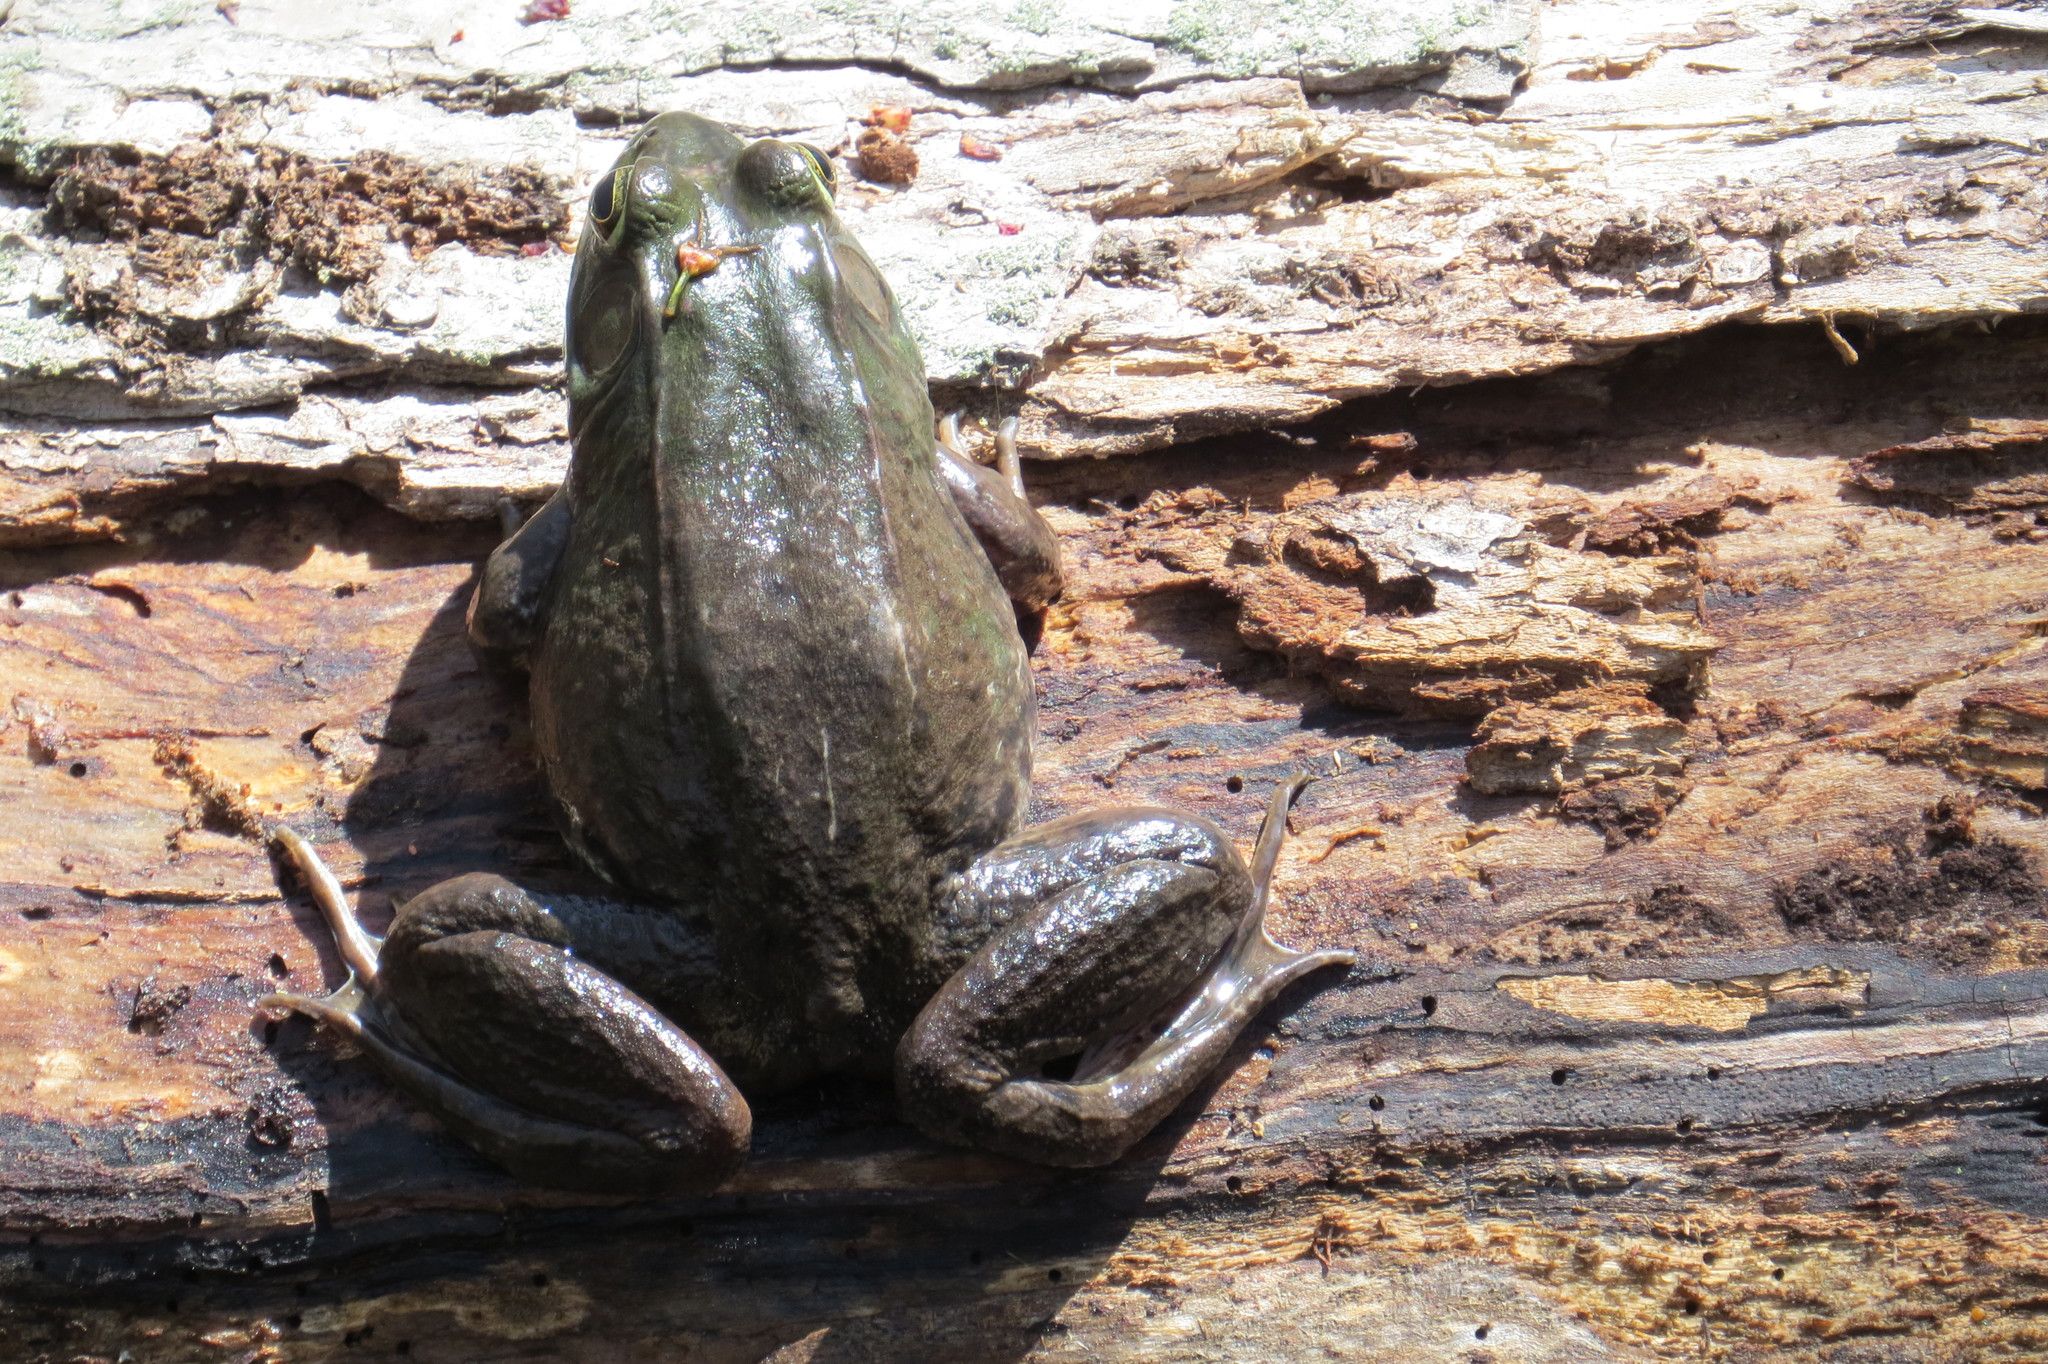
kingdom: Animalia
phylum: Chordata
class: Amphibia
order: Anura
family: Ranidae
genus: Lithobates
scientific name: Lithobates clamitans
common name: Green frog
